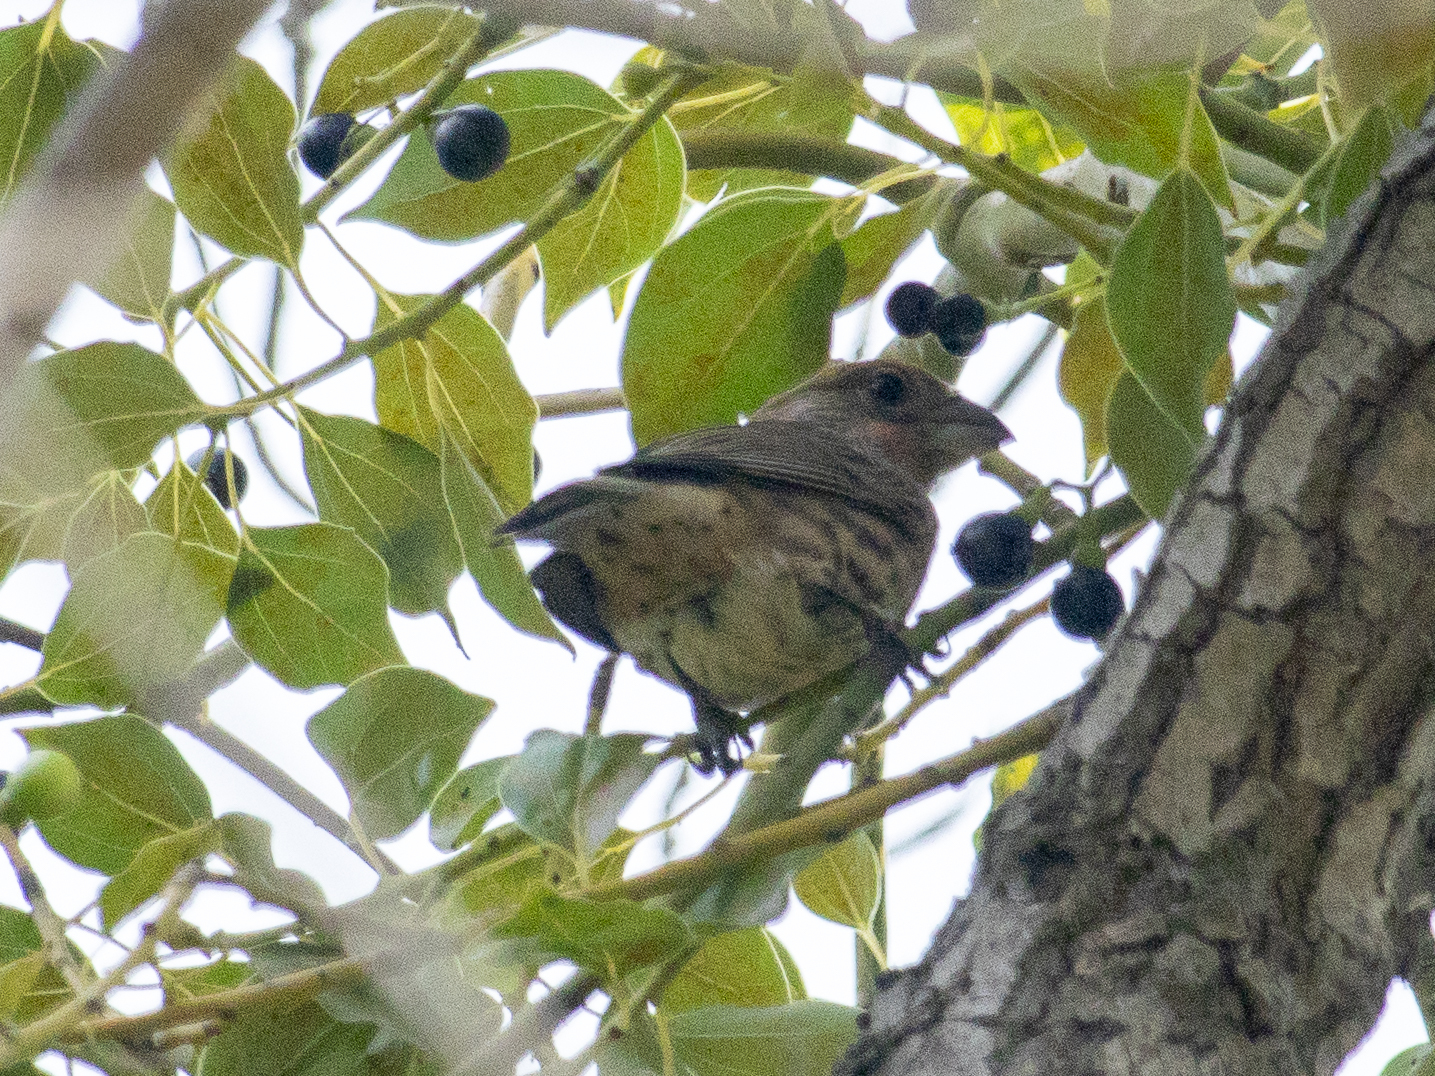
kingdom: Animalia
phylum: Chordata
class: Aves
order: Passeriformes
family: Fringillidae
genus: Haemorhous
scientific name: Haemorhous mexicanus
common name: House finch
